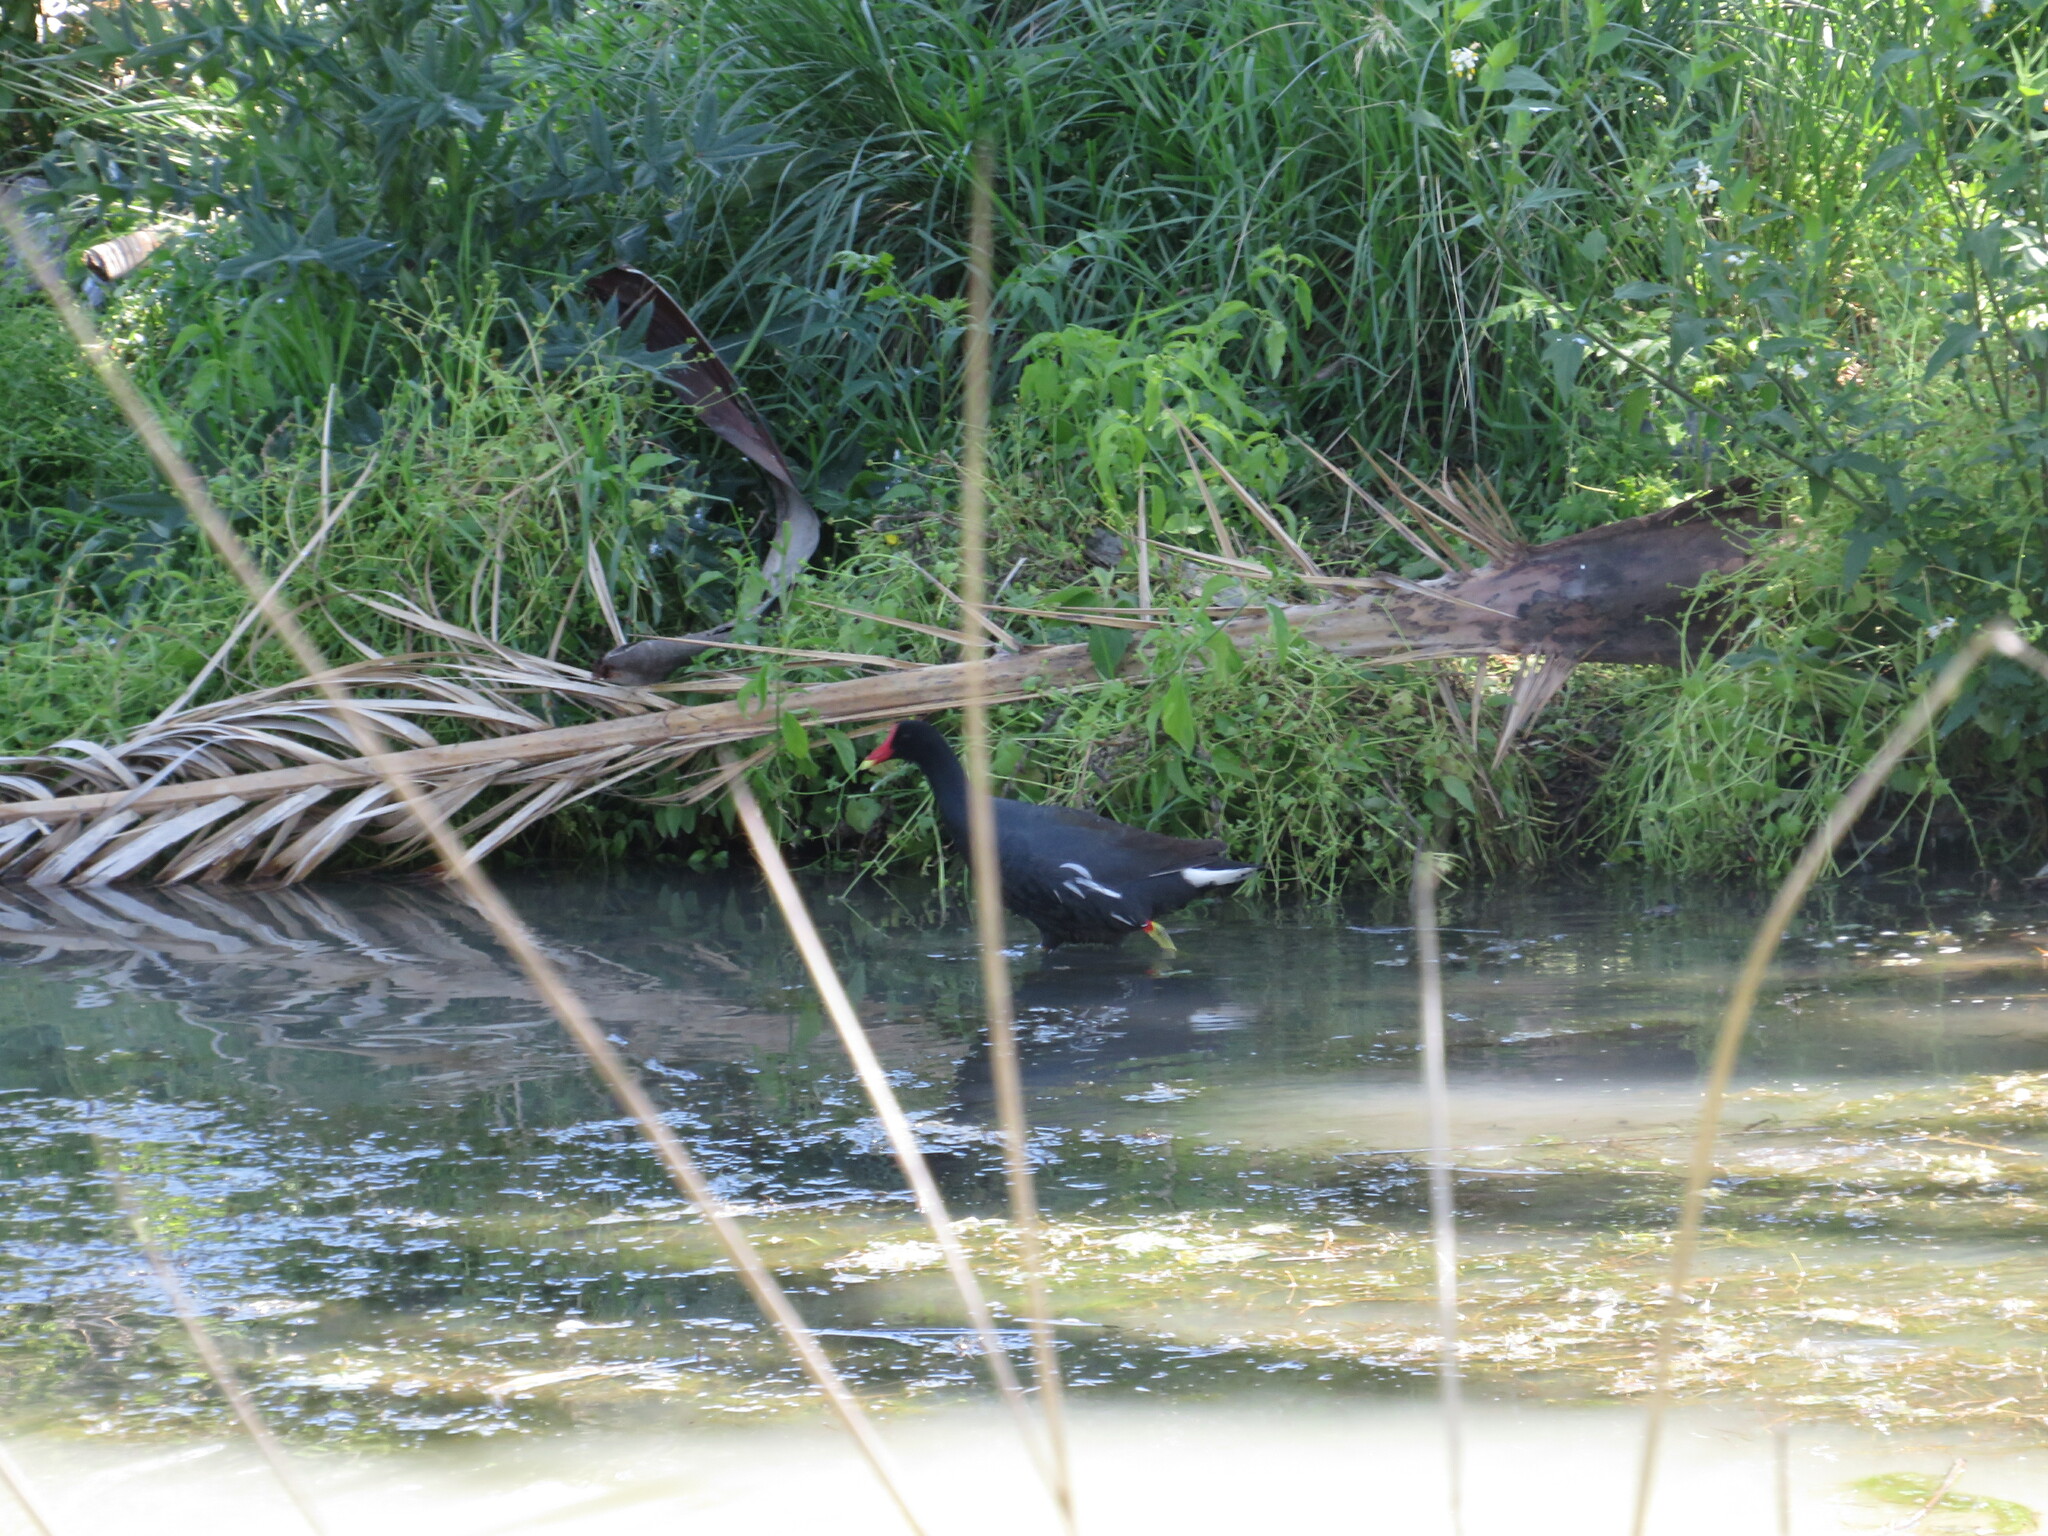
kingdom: Animalia
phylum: Chordata
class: Aves
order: Gruiformes
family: Rallidae
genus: Gallinula
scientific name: Gallinula chloropus
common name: Common moorhen
